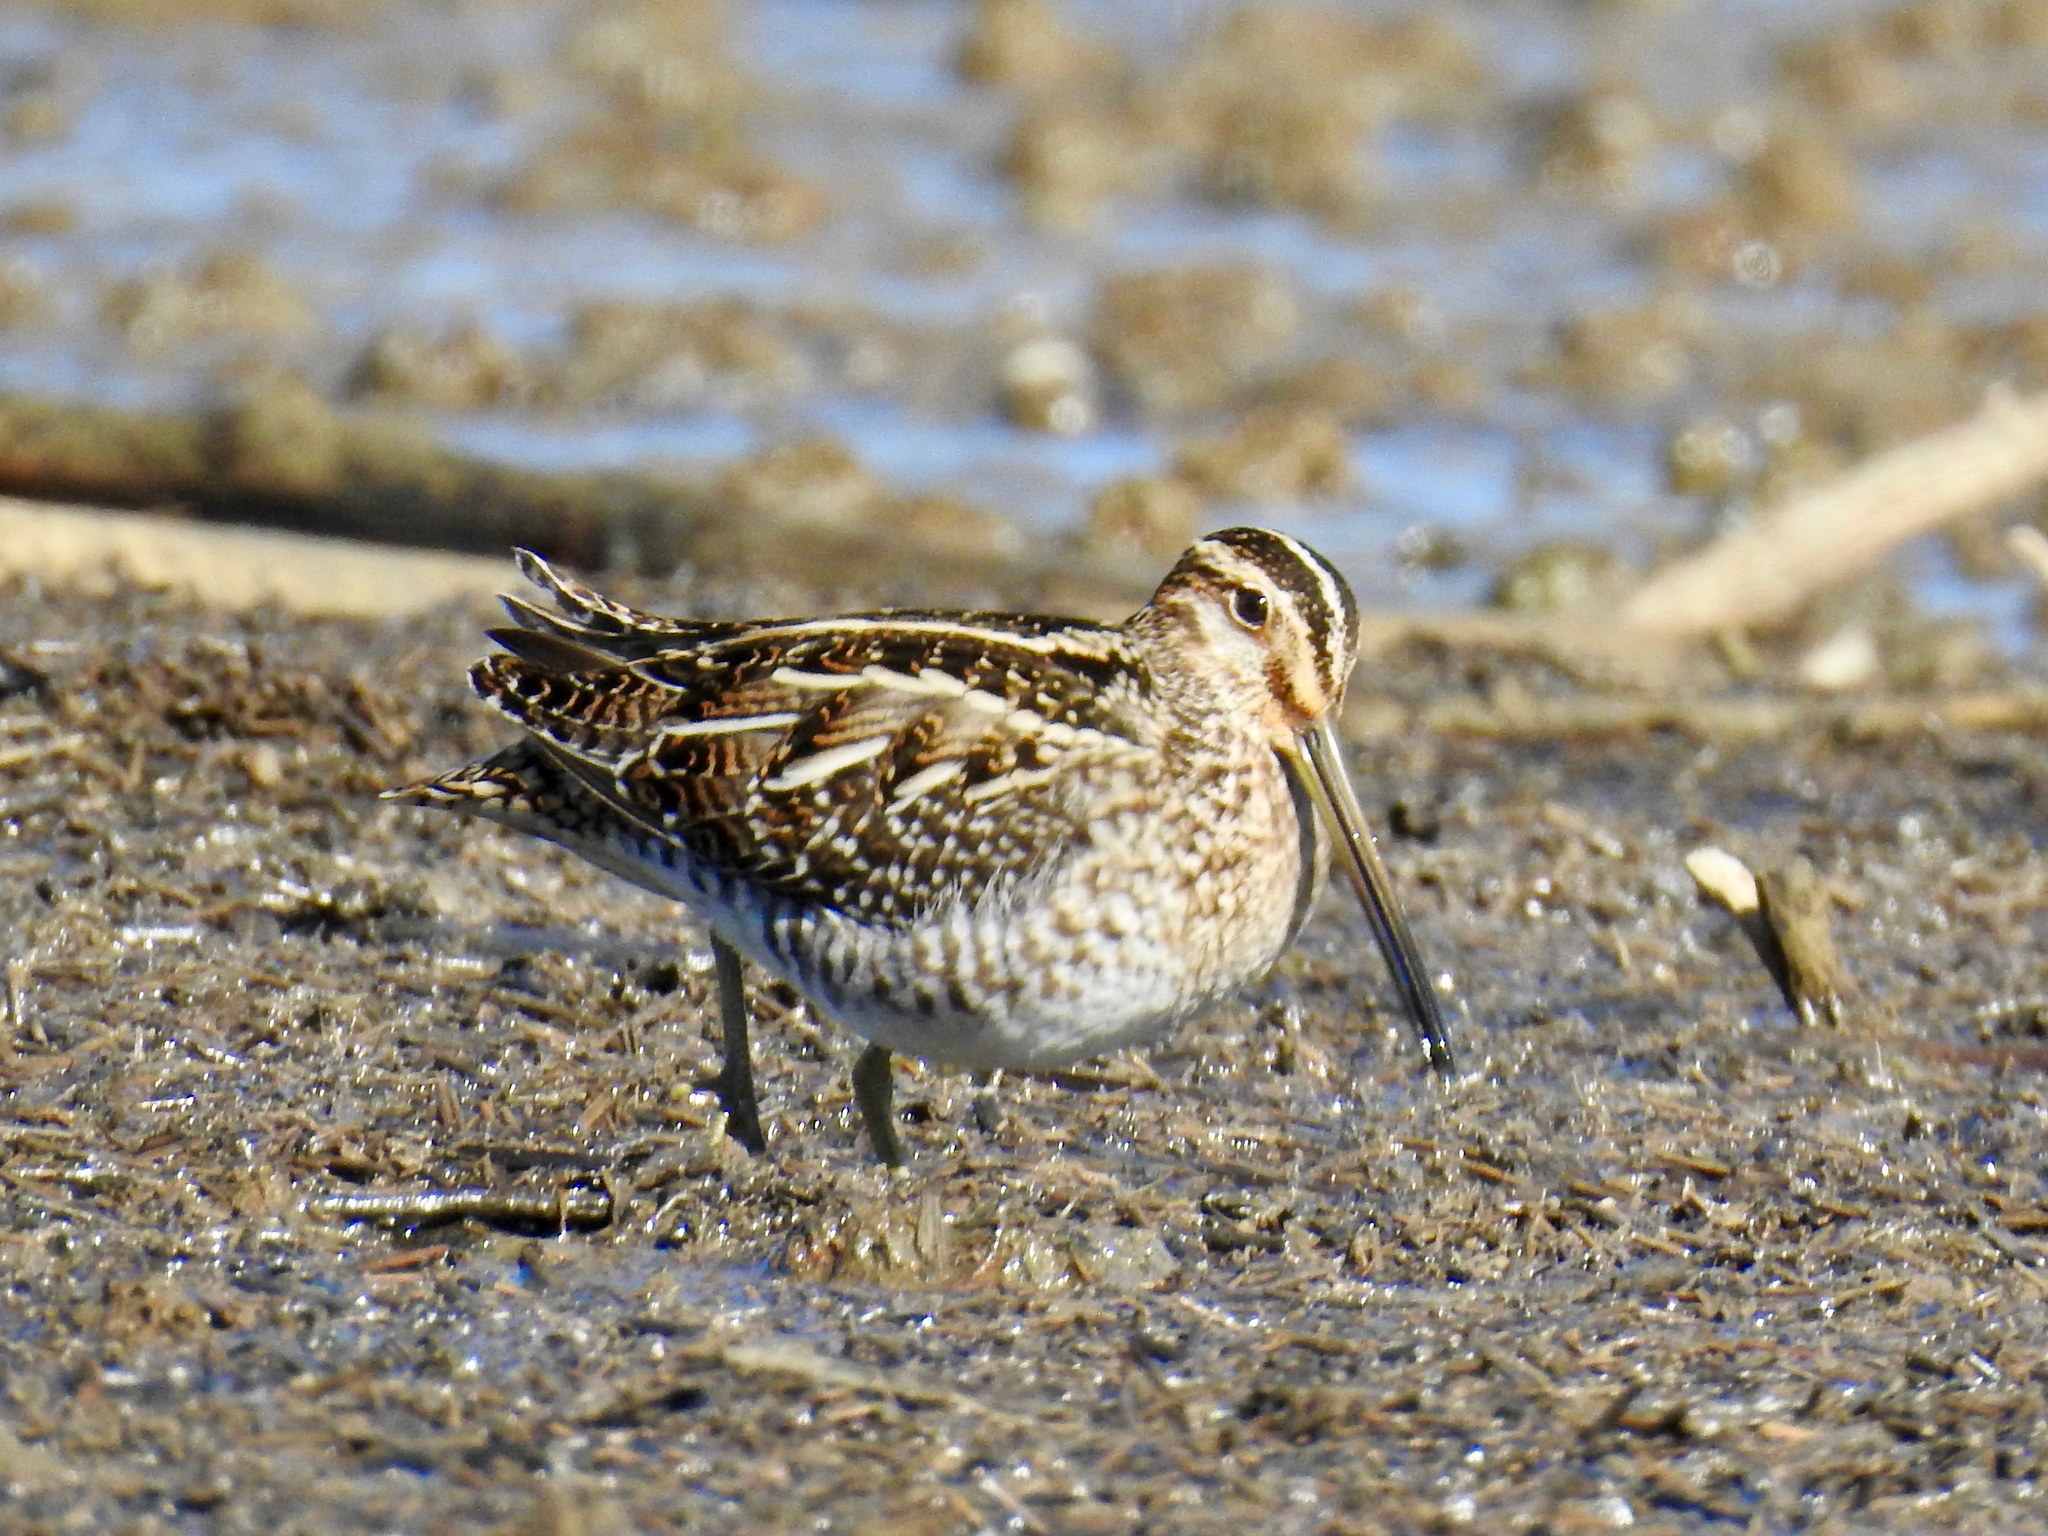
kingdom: Animalia
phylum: Chordata
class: Aves
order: Charadriiformes
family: Scolopacidae
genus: Gallinago
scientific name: Gallinago delicata
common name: Wilson's snipe
